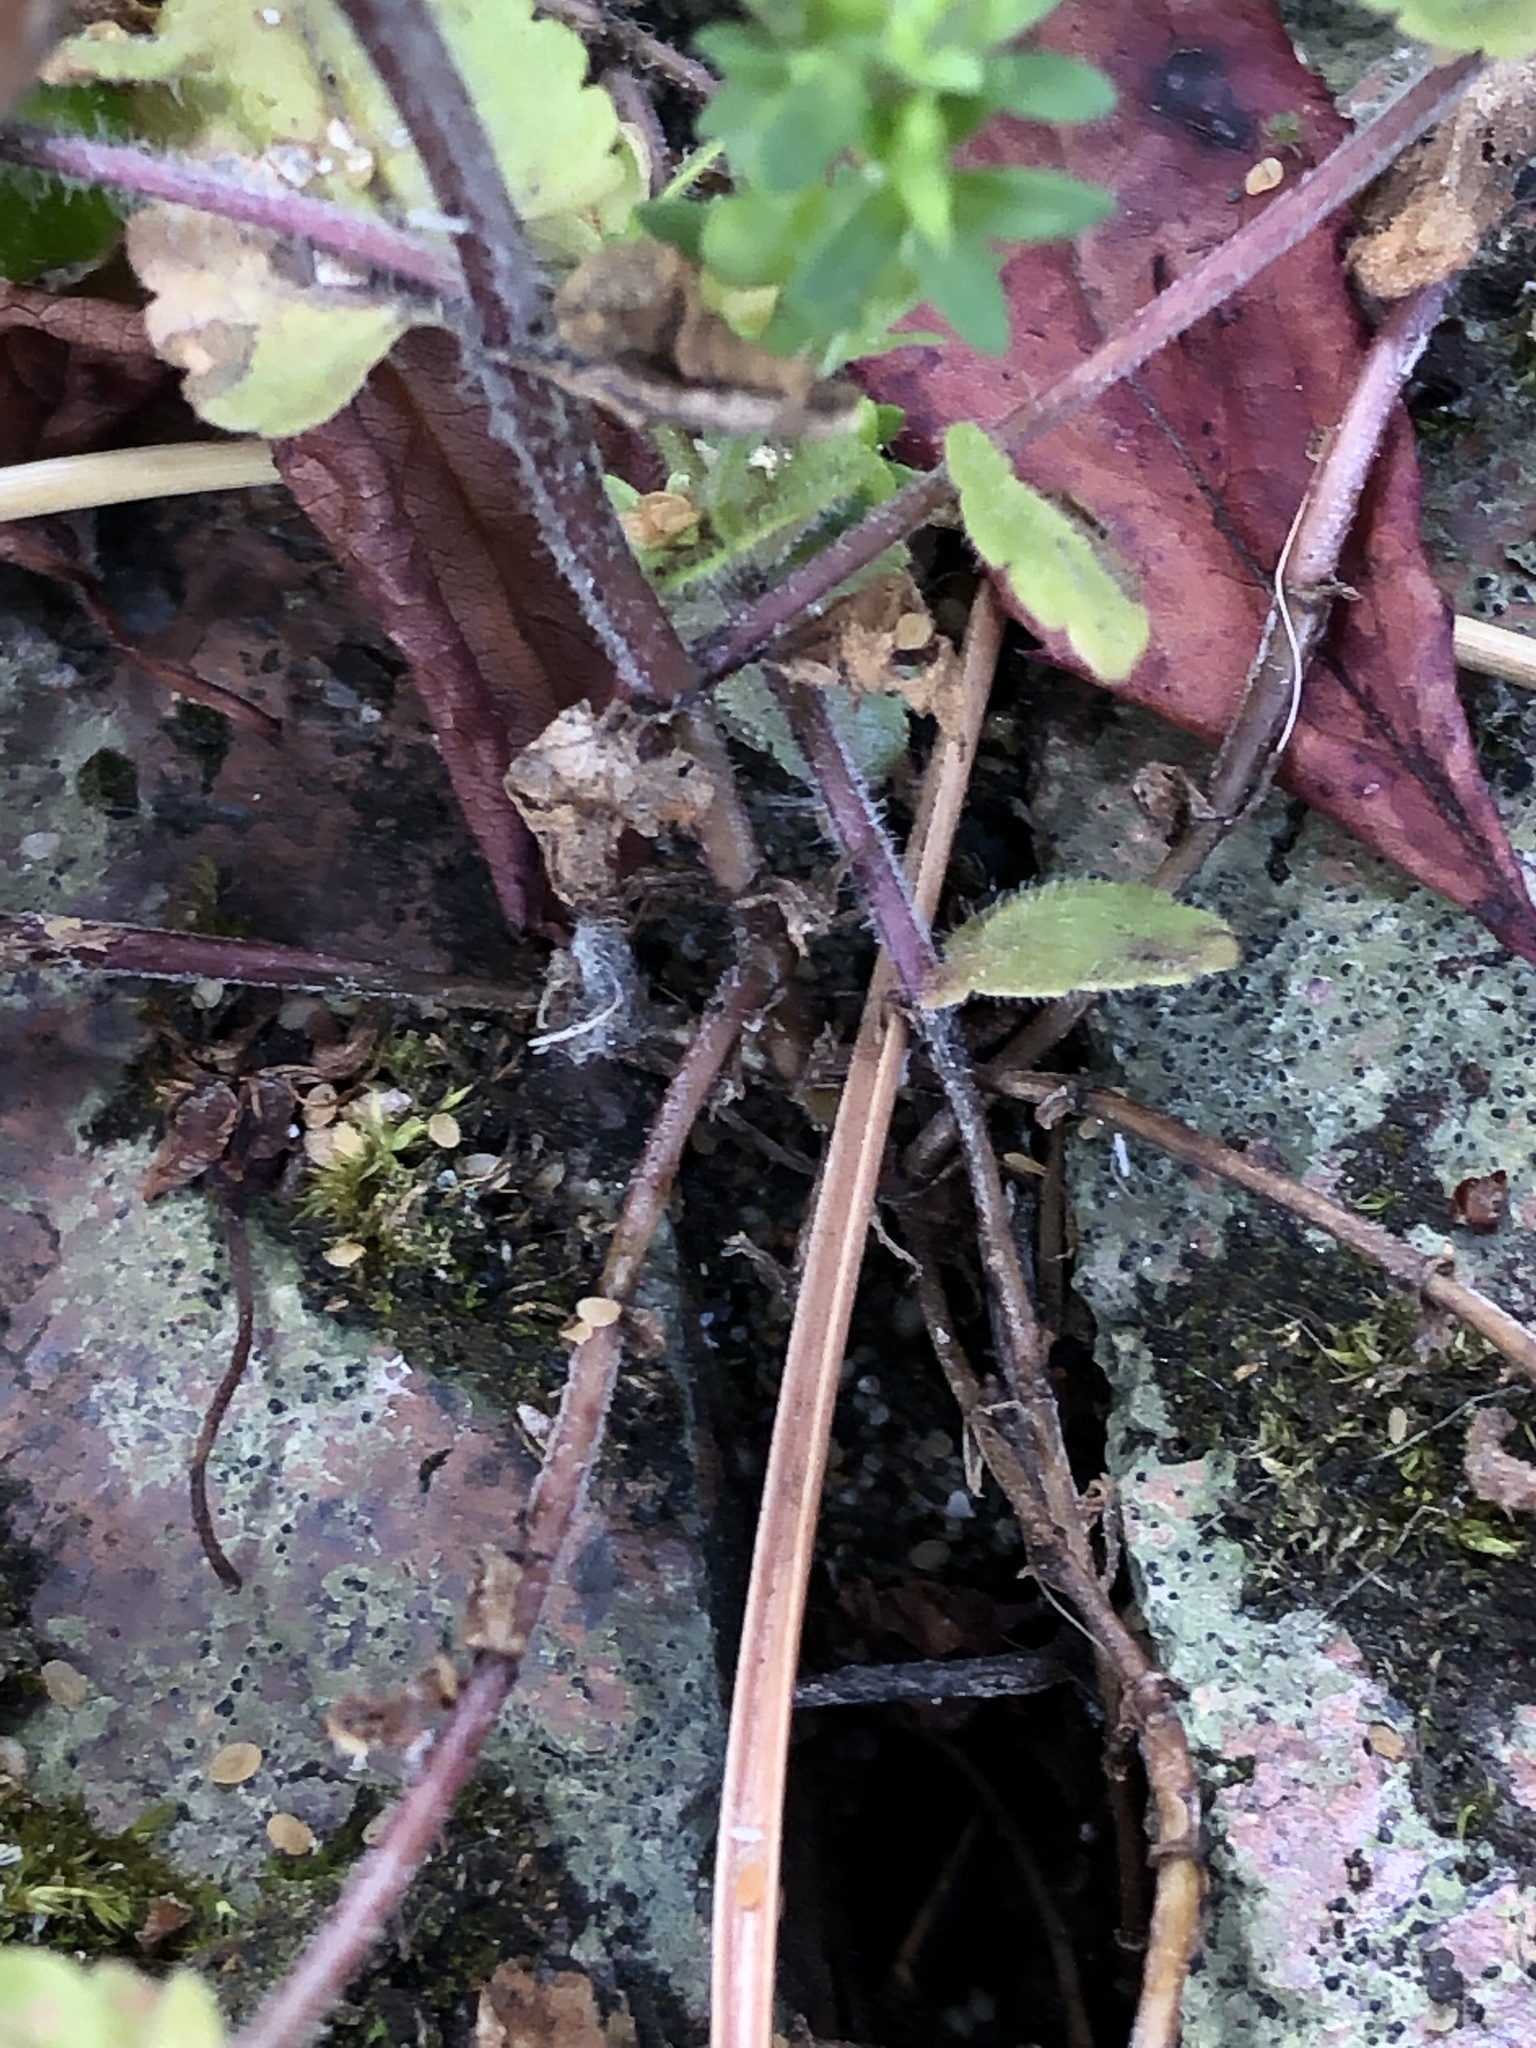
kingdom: Plantae
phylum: Tracheophyta
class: Magnoliopsida
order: Lamiales
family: Plantaginaceae
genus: Veronica
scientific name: Veronica arvensis
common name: Corn speedwell
